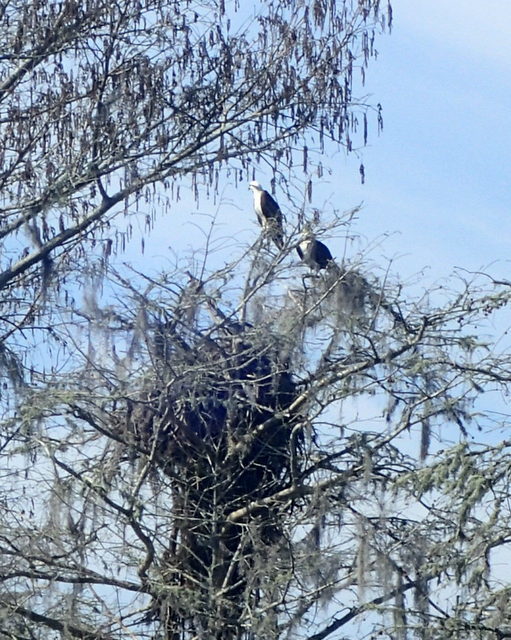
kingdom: Animalia
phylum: Chordata
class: Aves
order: Accipitriformes
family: Pandionidae
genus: Pandion
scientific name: Pandion haliaetus
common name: Osprey
